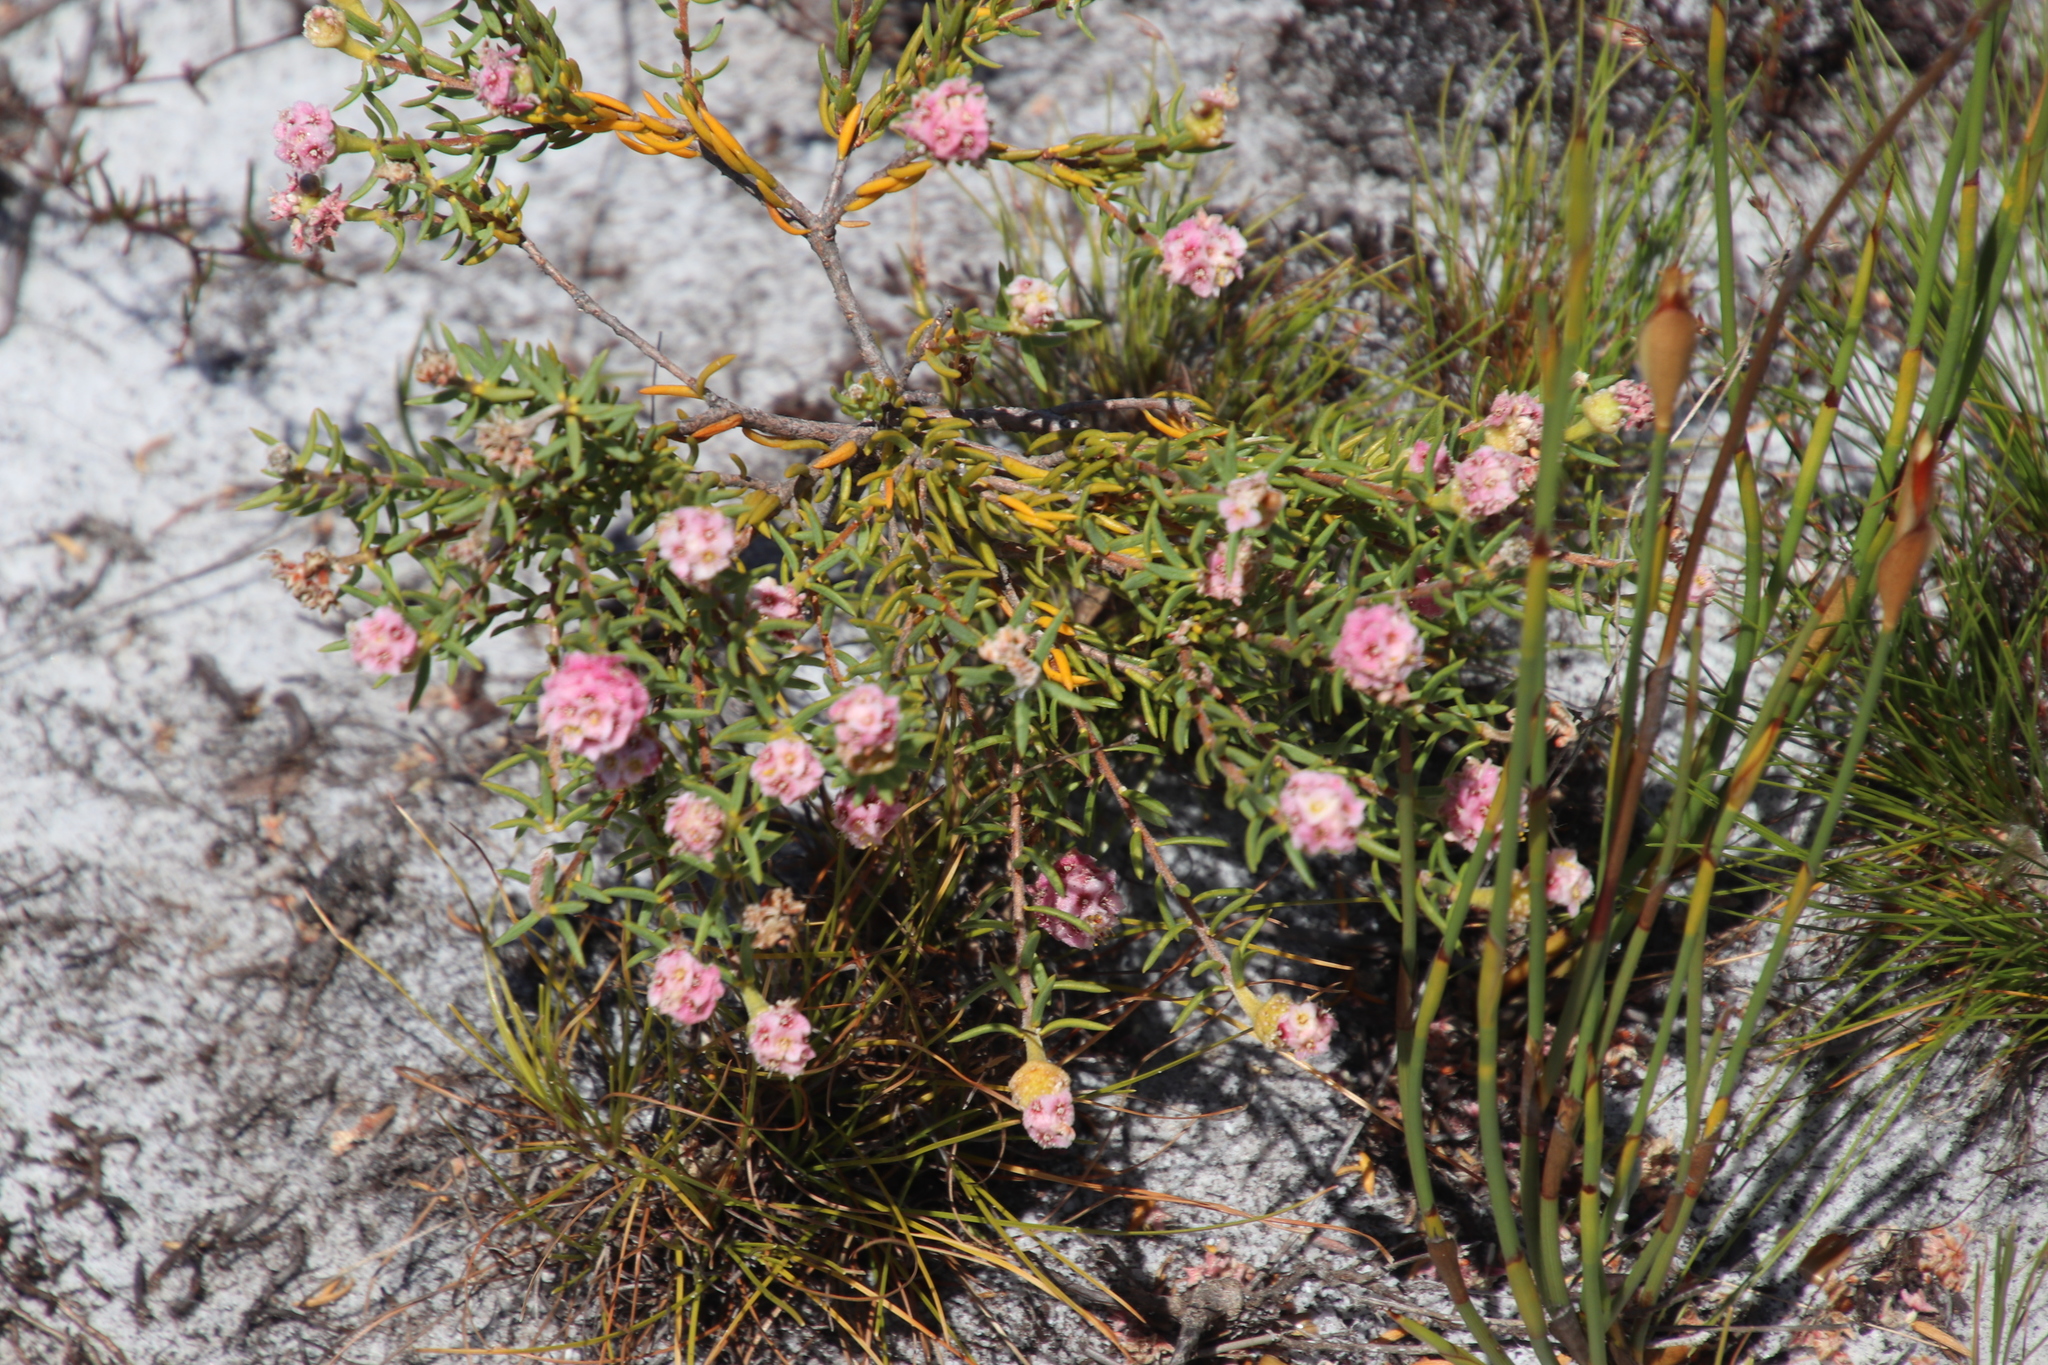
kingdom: Plantae
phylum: Tracheophyta
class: Magnoliopsida
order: Malvales
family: Thymelaeaceae
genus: Lachnaea
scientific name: Lachnaea densiflora
